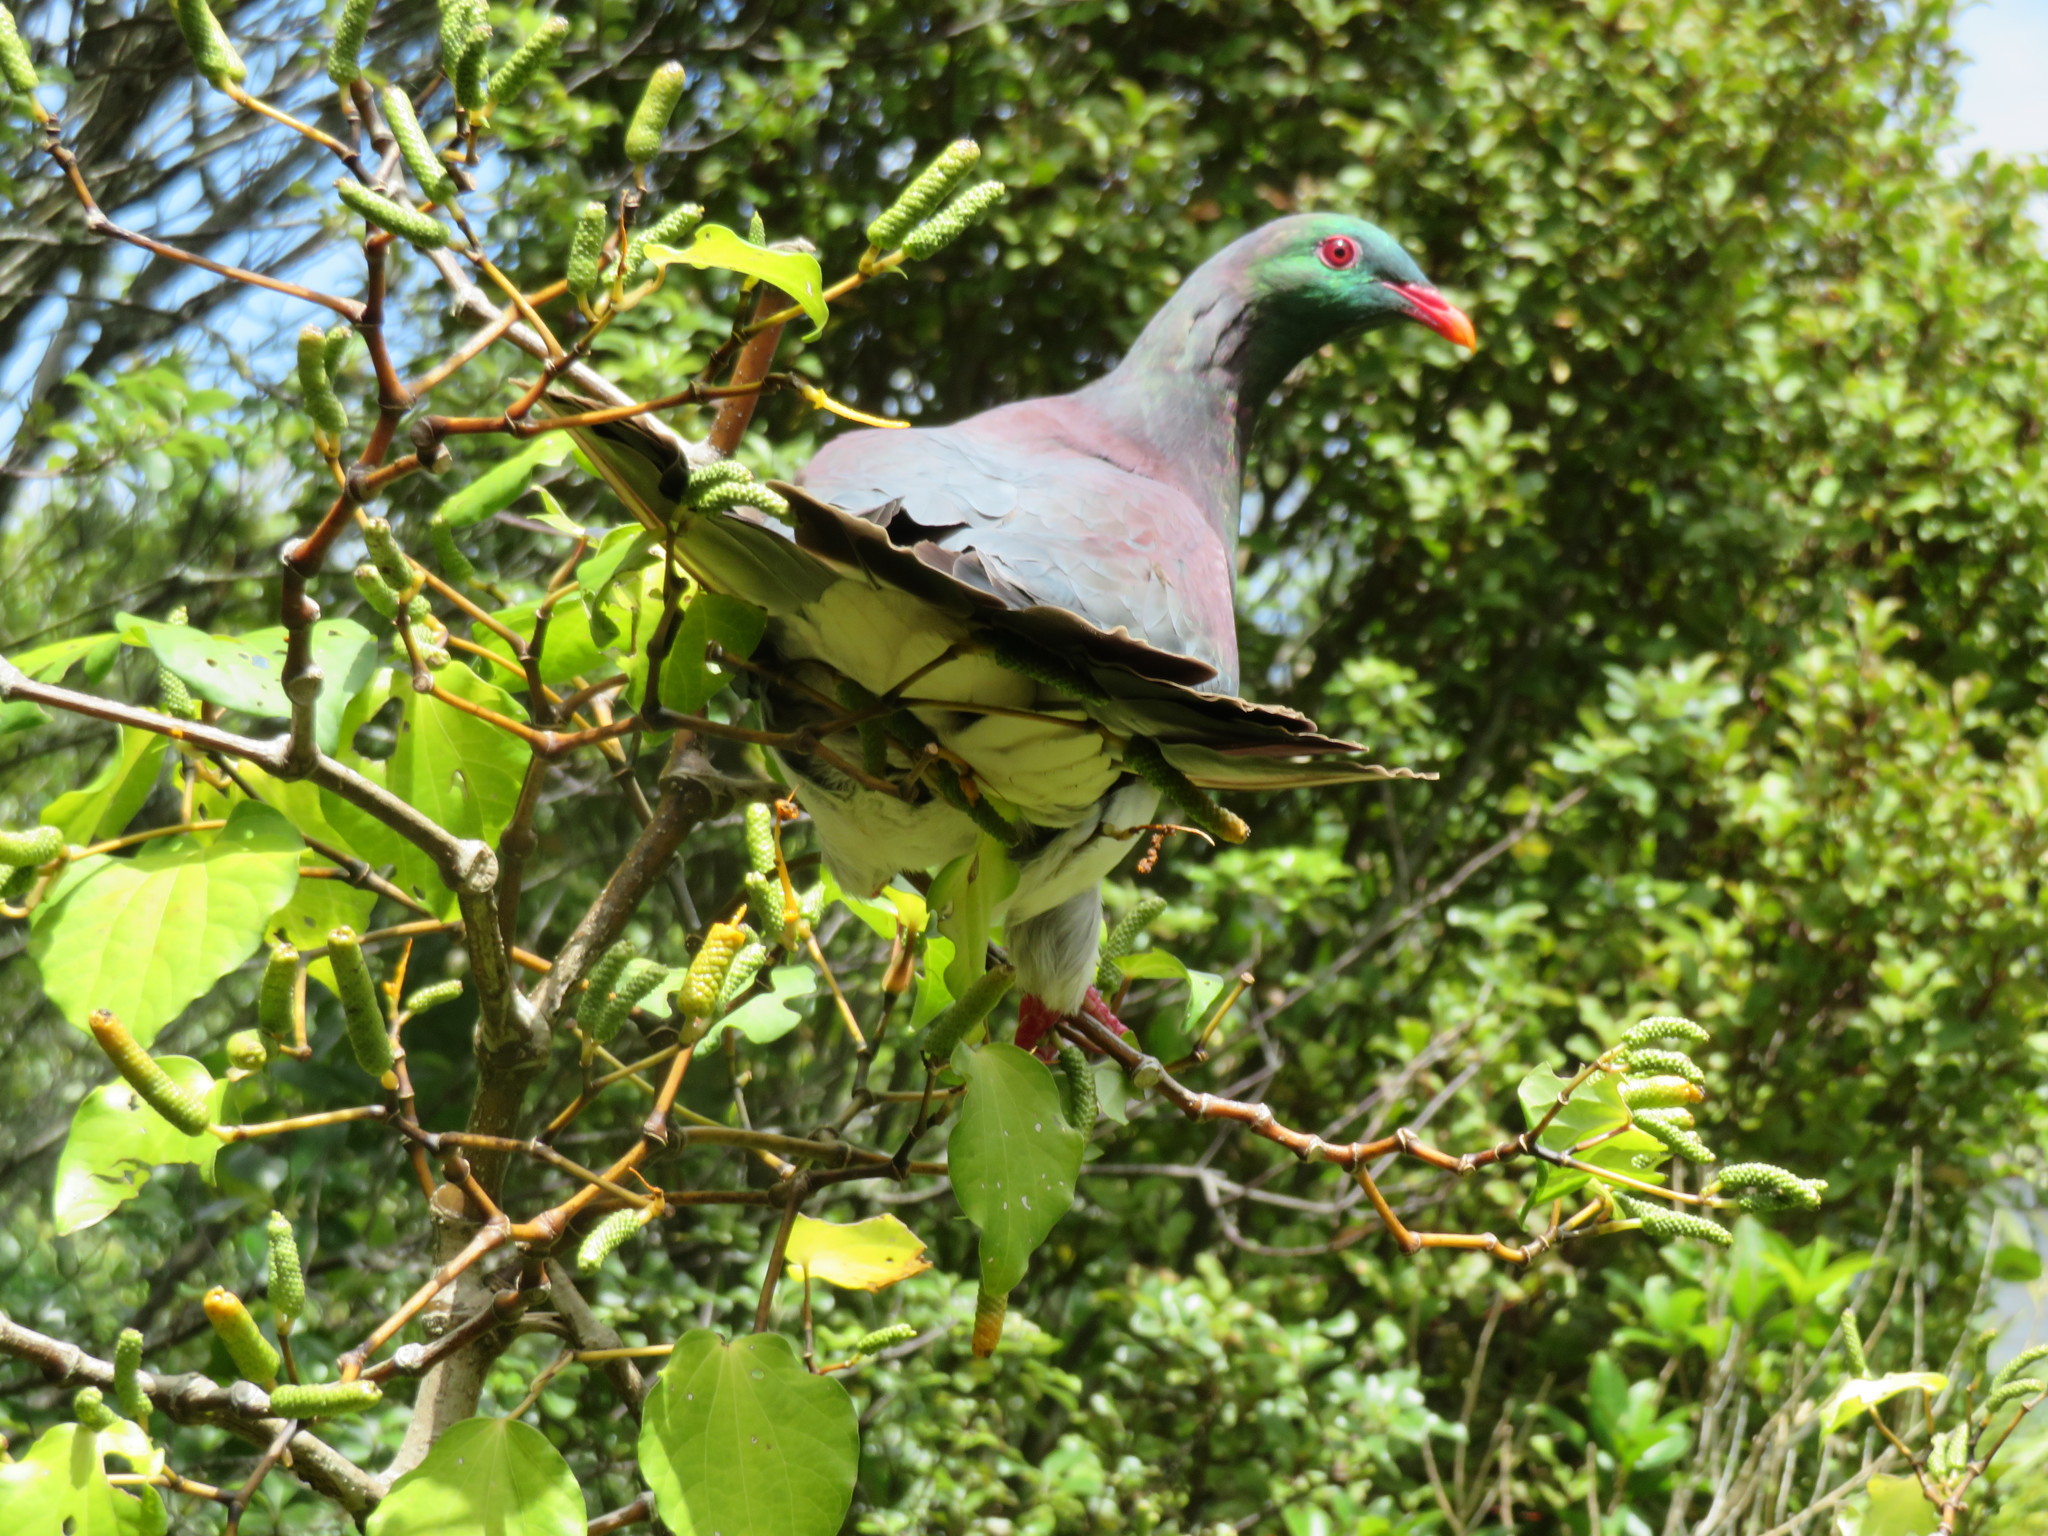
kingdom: Animalia
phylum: Chordata
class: Aves
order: Columbiformes
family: Columbidae
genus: Hemiphaga
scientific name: Hemiphaga novaeseelandiae
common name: New zealand pigeon
